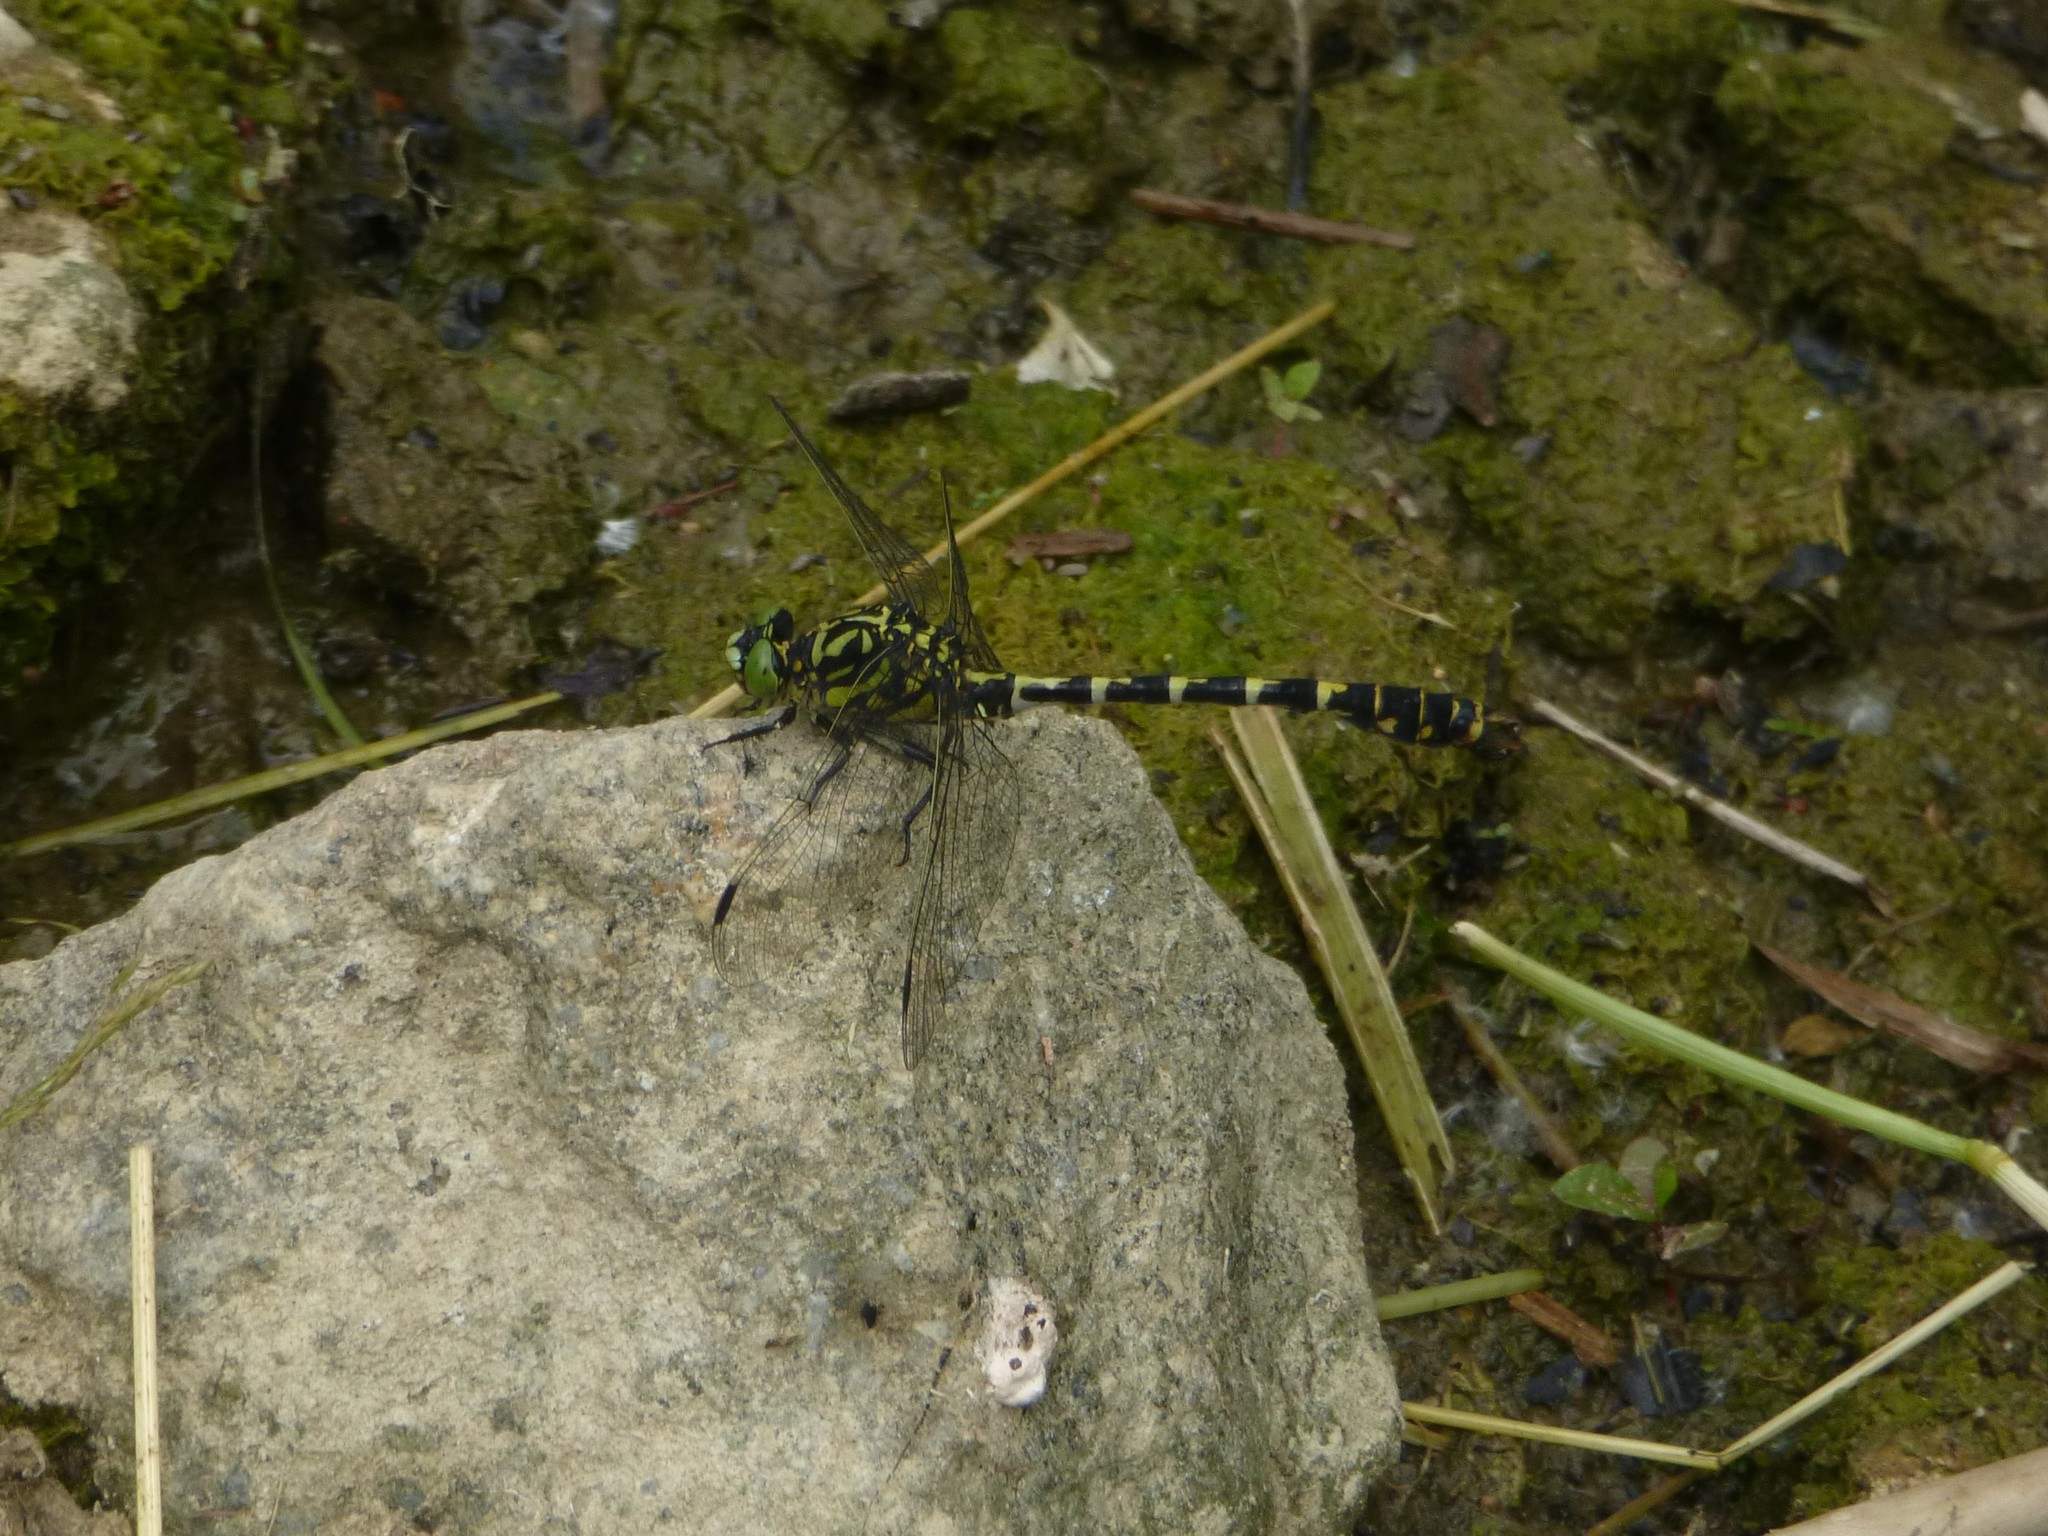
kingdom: Animalia
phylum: Arthropoda
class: Insecta
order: Odonata
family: Gomphidae
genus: Onychogomphus
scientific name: Onychogomphus forcipatus
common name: Small pincertail
